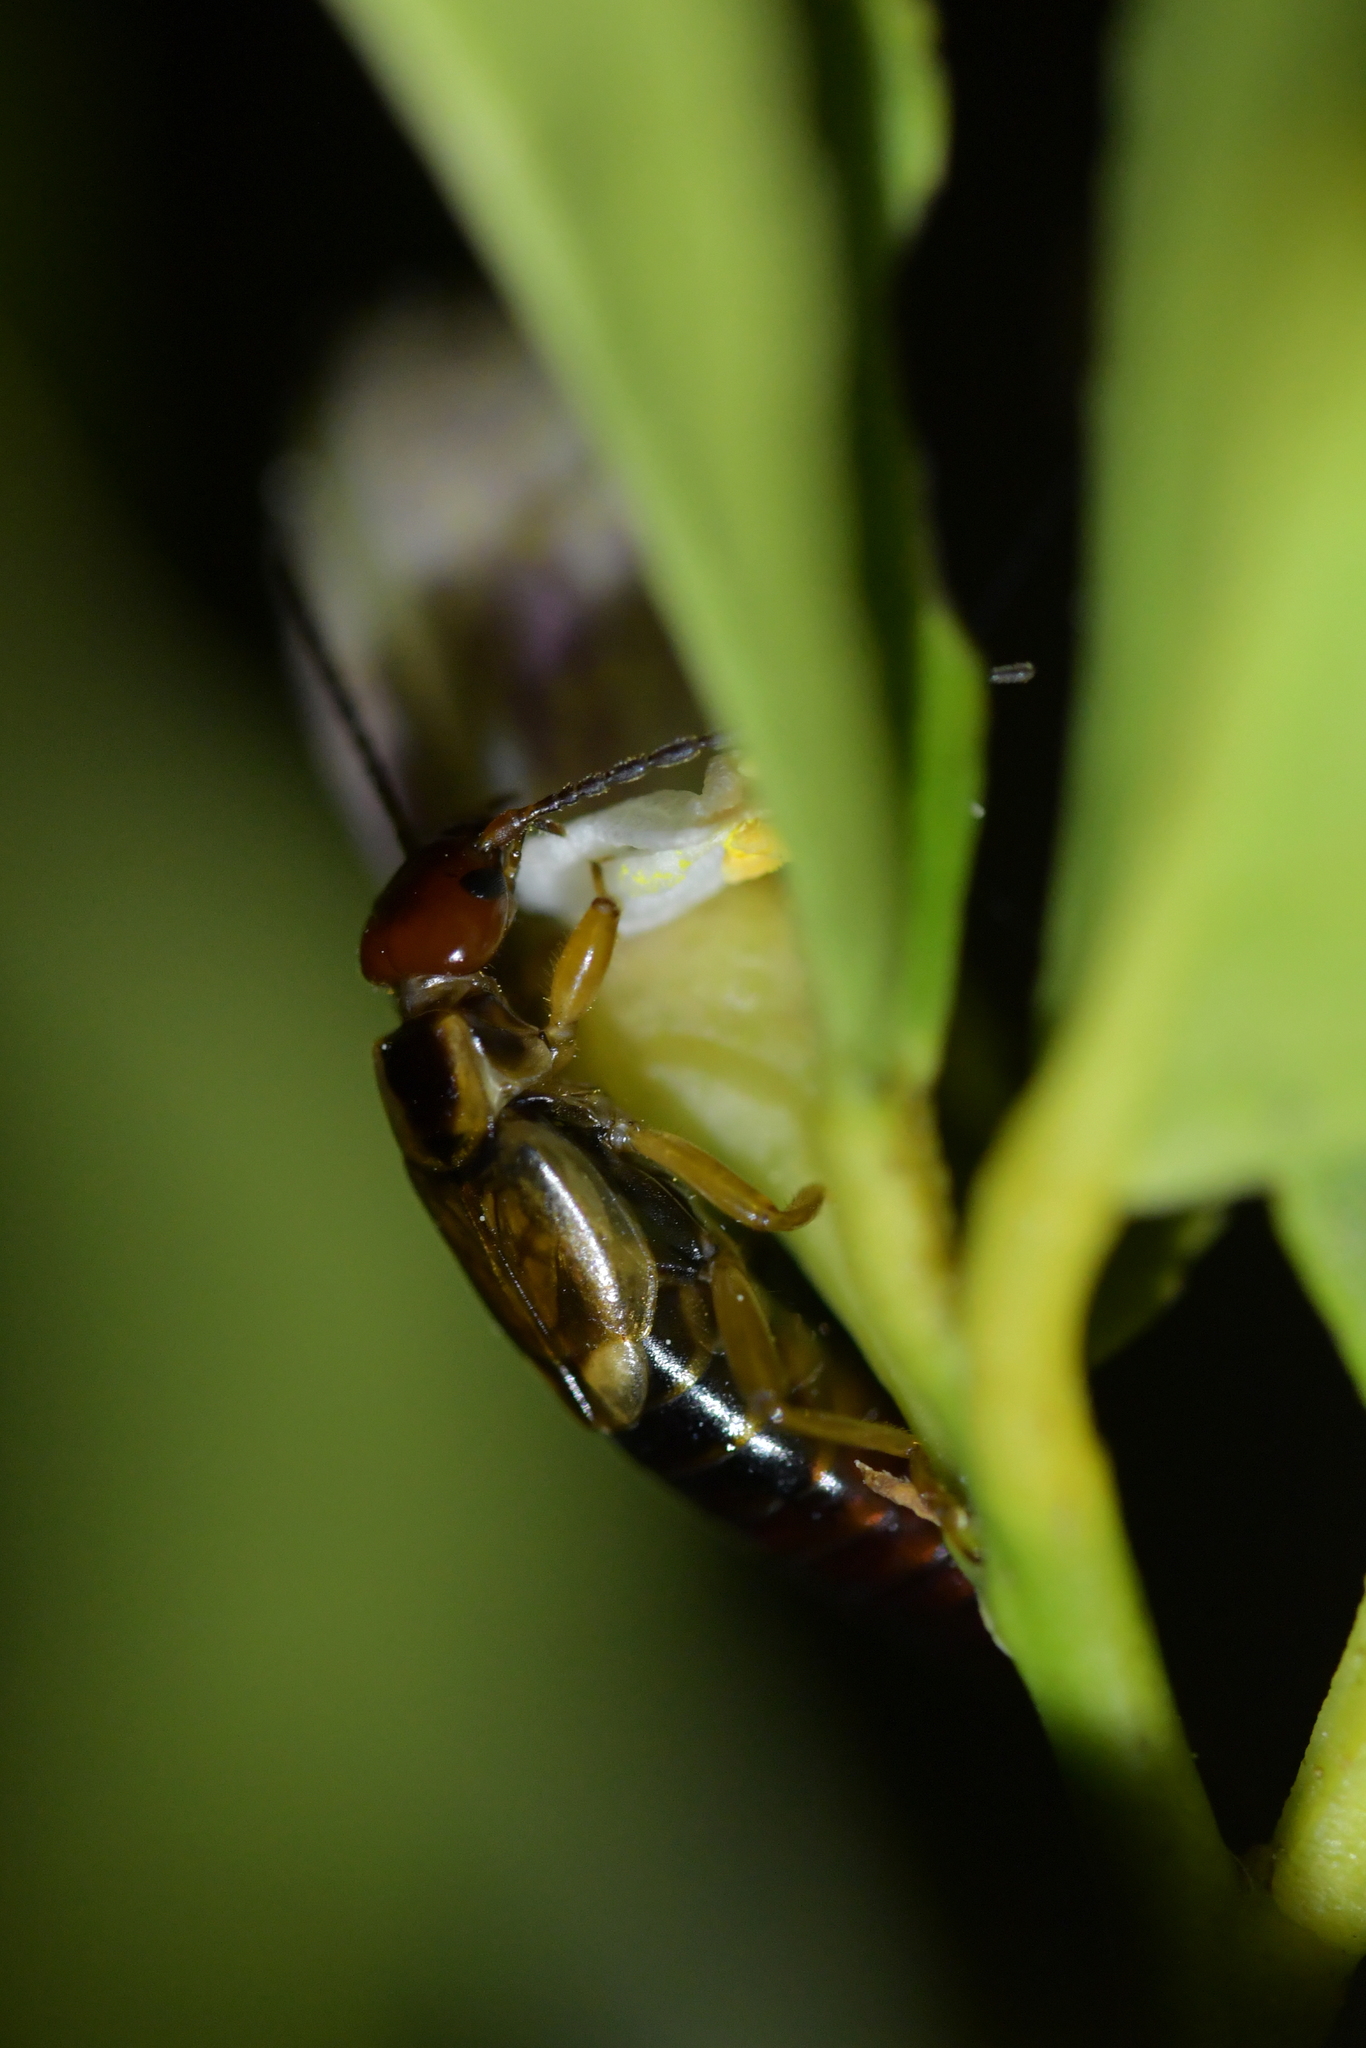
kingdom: Animalia
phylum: Arthropoda
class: Insecta
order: Dermaptera
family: Forficulidae
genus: Forficula
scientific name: Forficula
